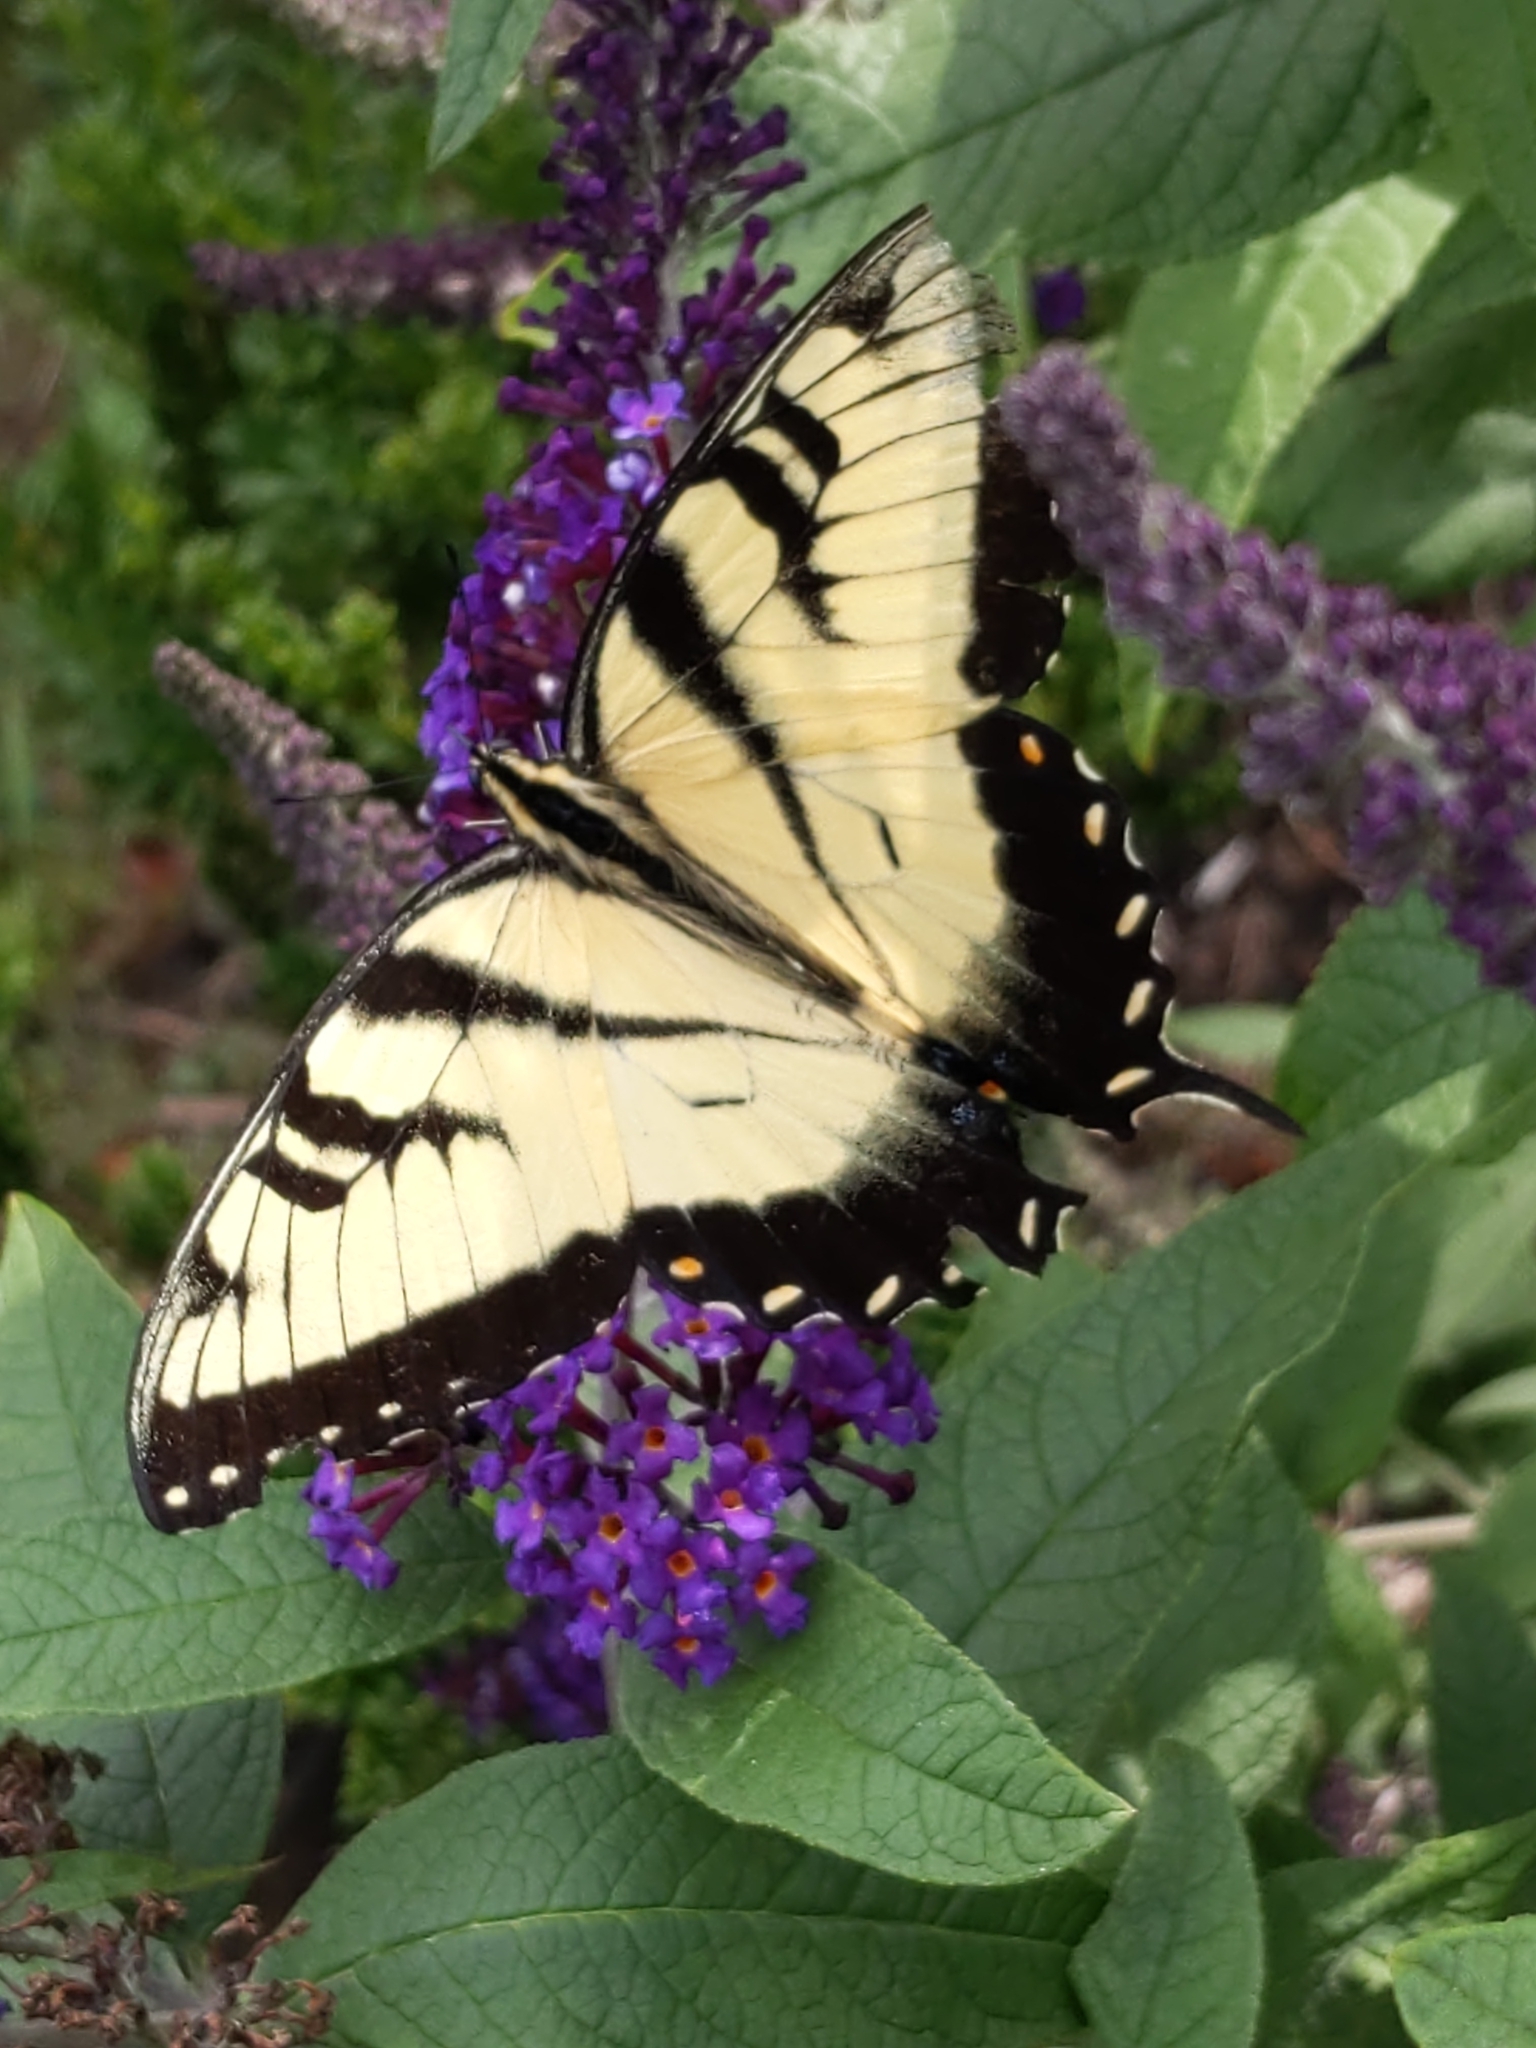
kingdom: Animalia
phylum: Arthropoda
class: Insecta
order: Lepidoptera
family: Papilionidae
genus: Papilio
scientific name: Papilio glaucus
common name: Tiger swallowtail
